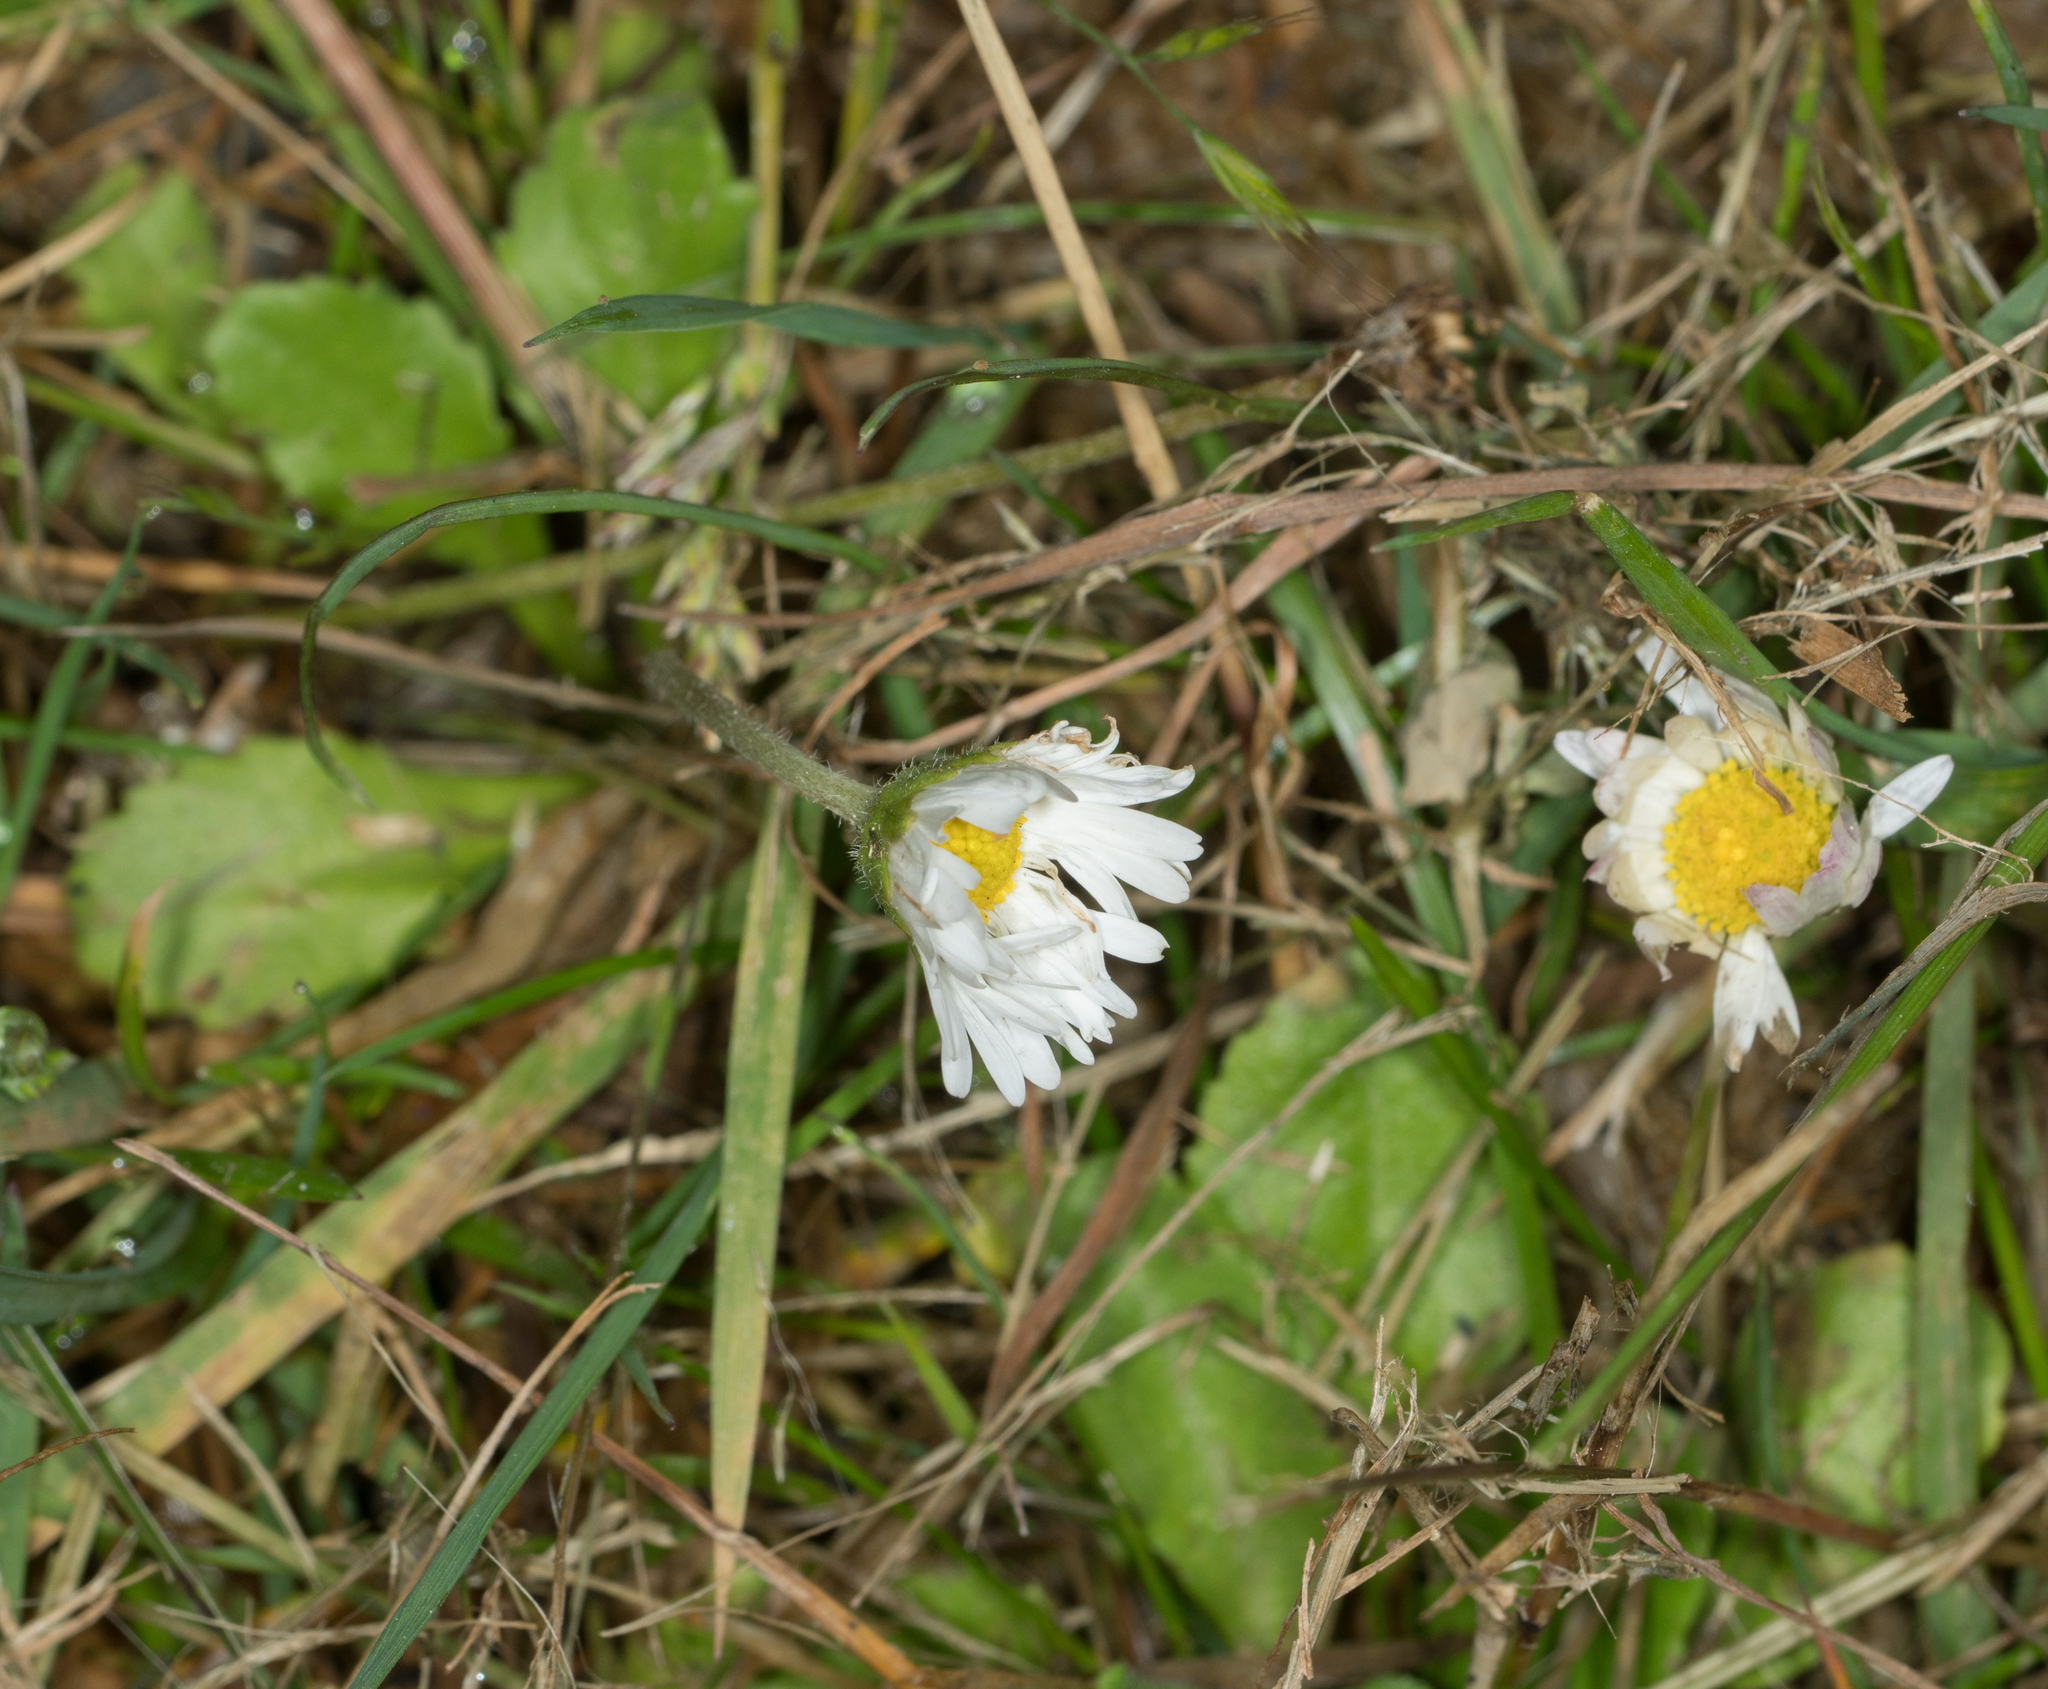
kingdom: Plantae
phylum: Tracheophyta
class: Magnoliopsida
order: Asterales
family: Asteraceae
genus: Bellis
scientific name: Bellis perennis
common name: Lawndaisy
